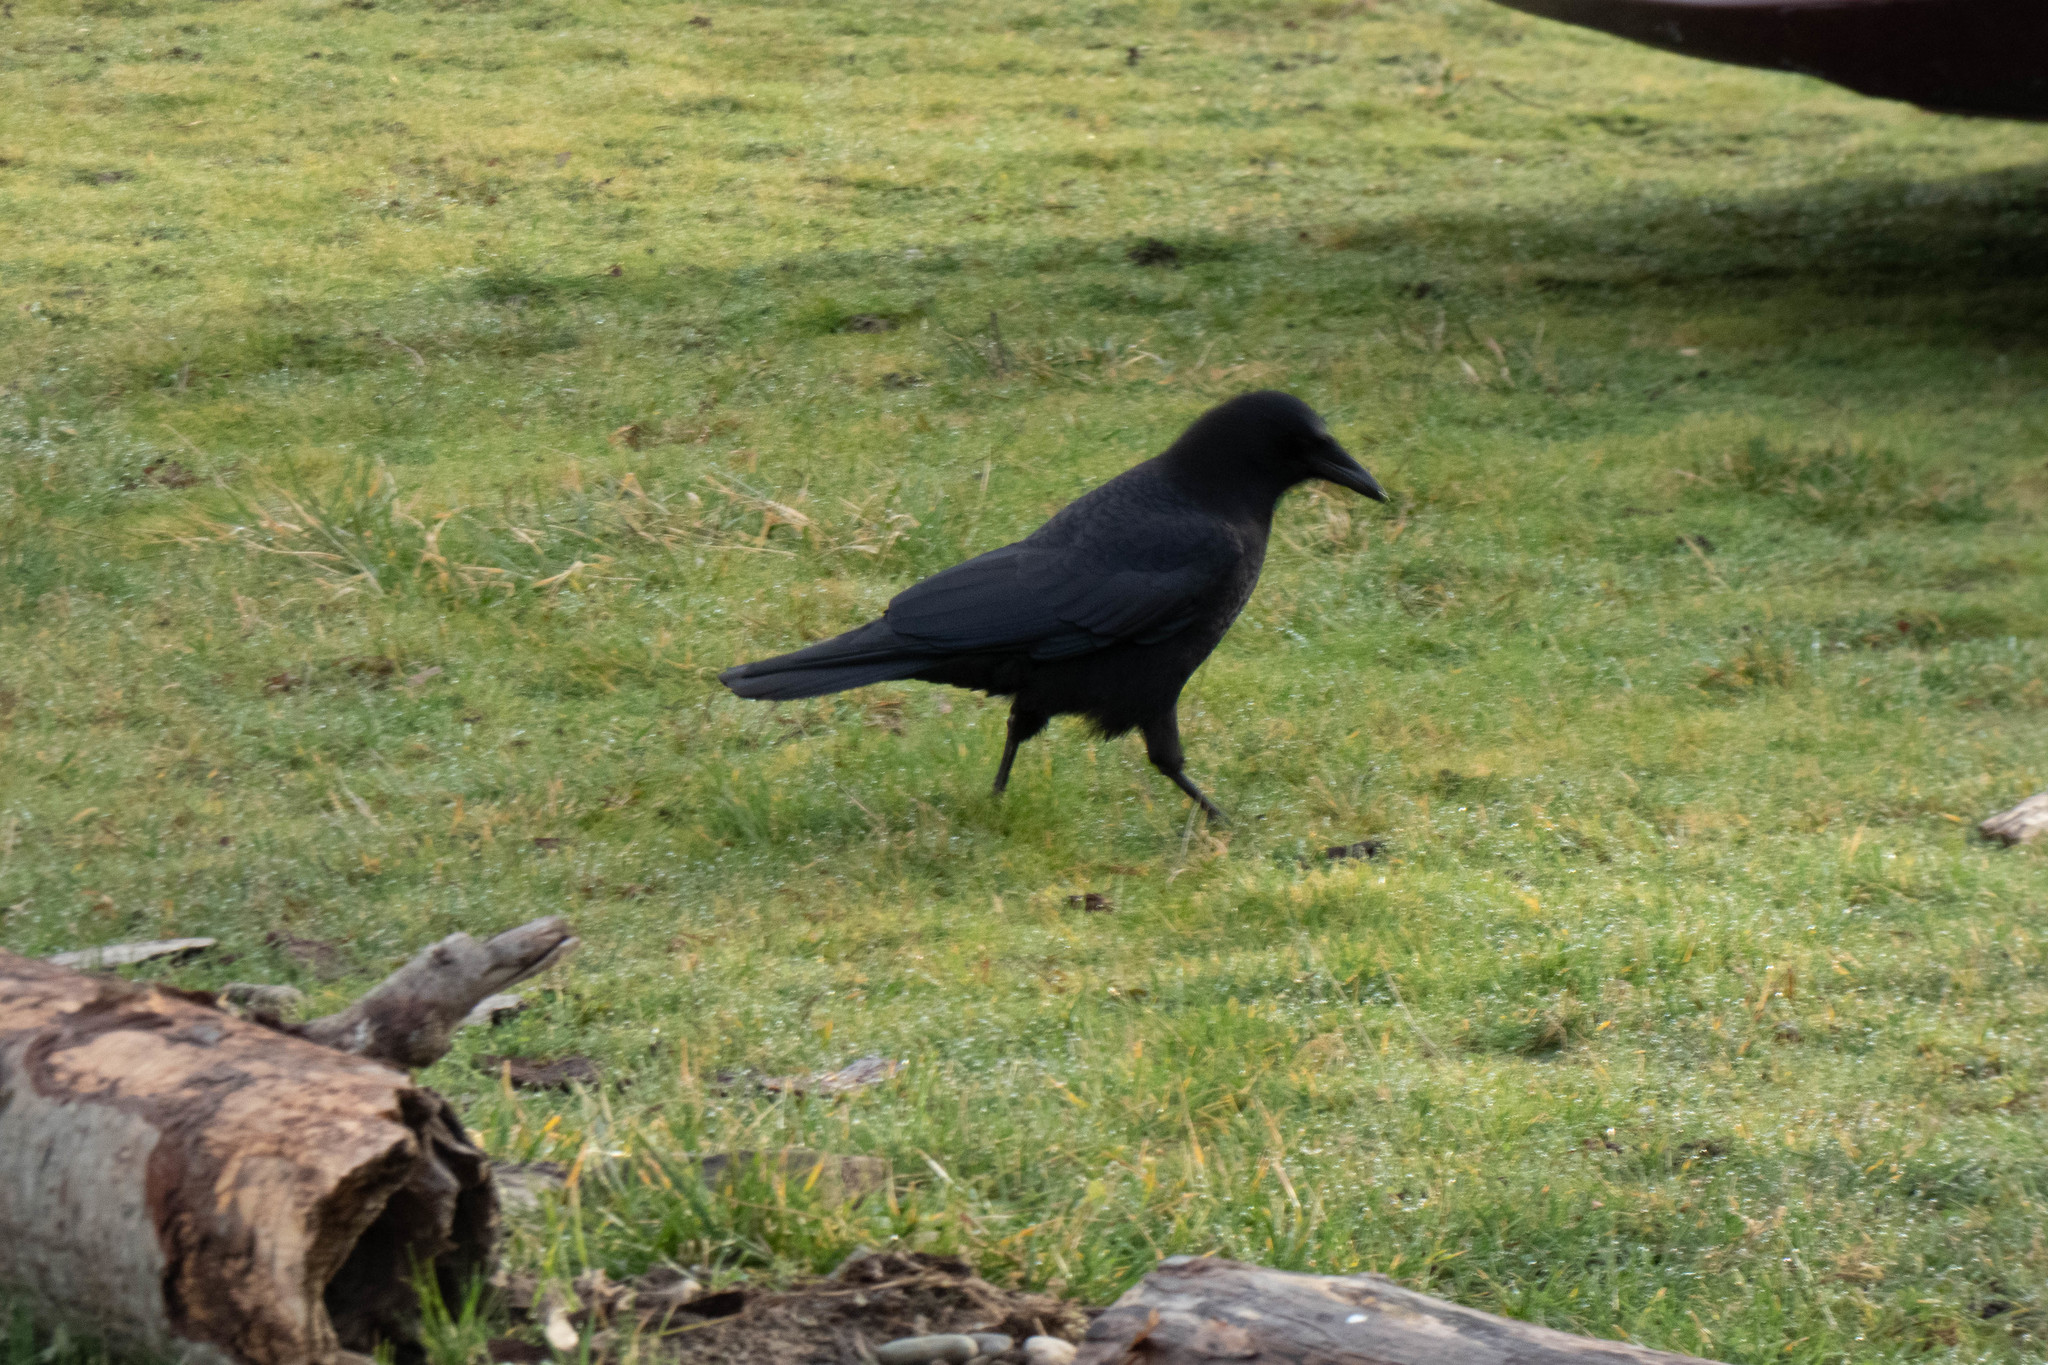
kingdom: Animalia
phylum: Chordata
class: Aves
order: Passeriformes
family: Corvidae
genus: Corvus
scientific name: Corvus brachyrhynchos
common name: American crow
